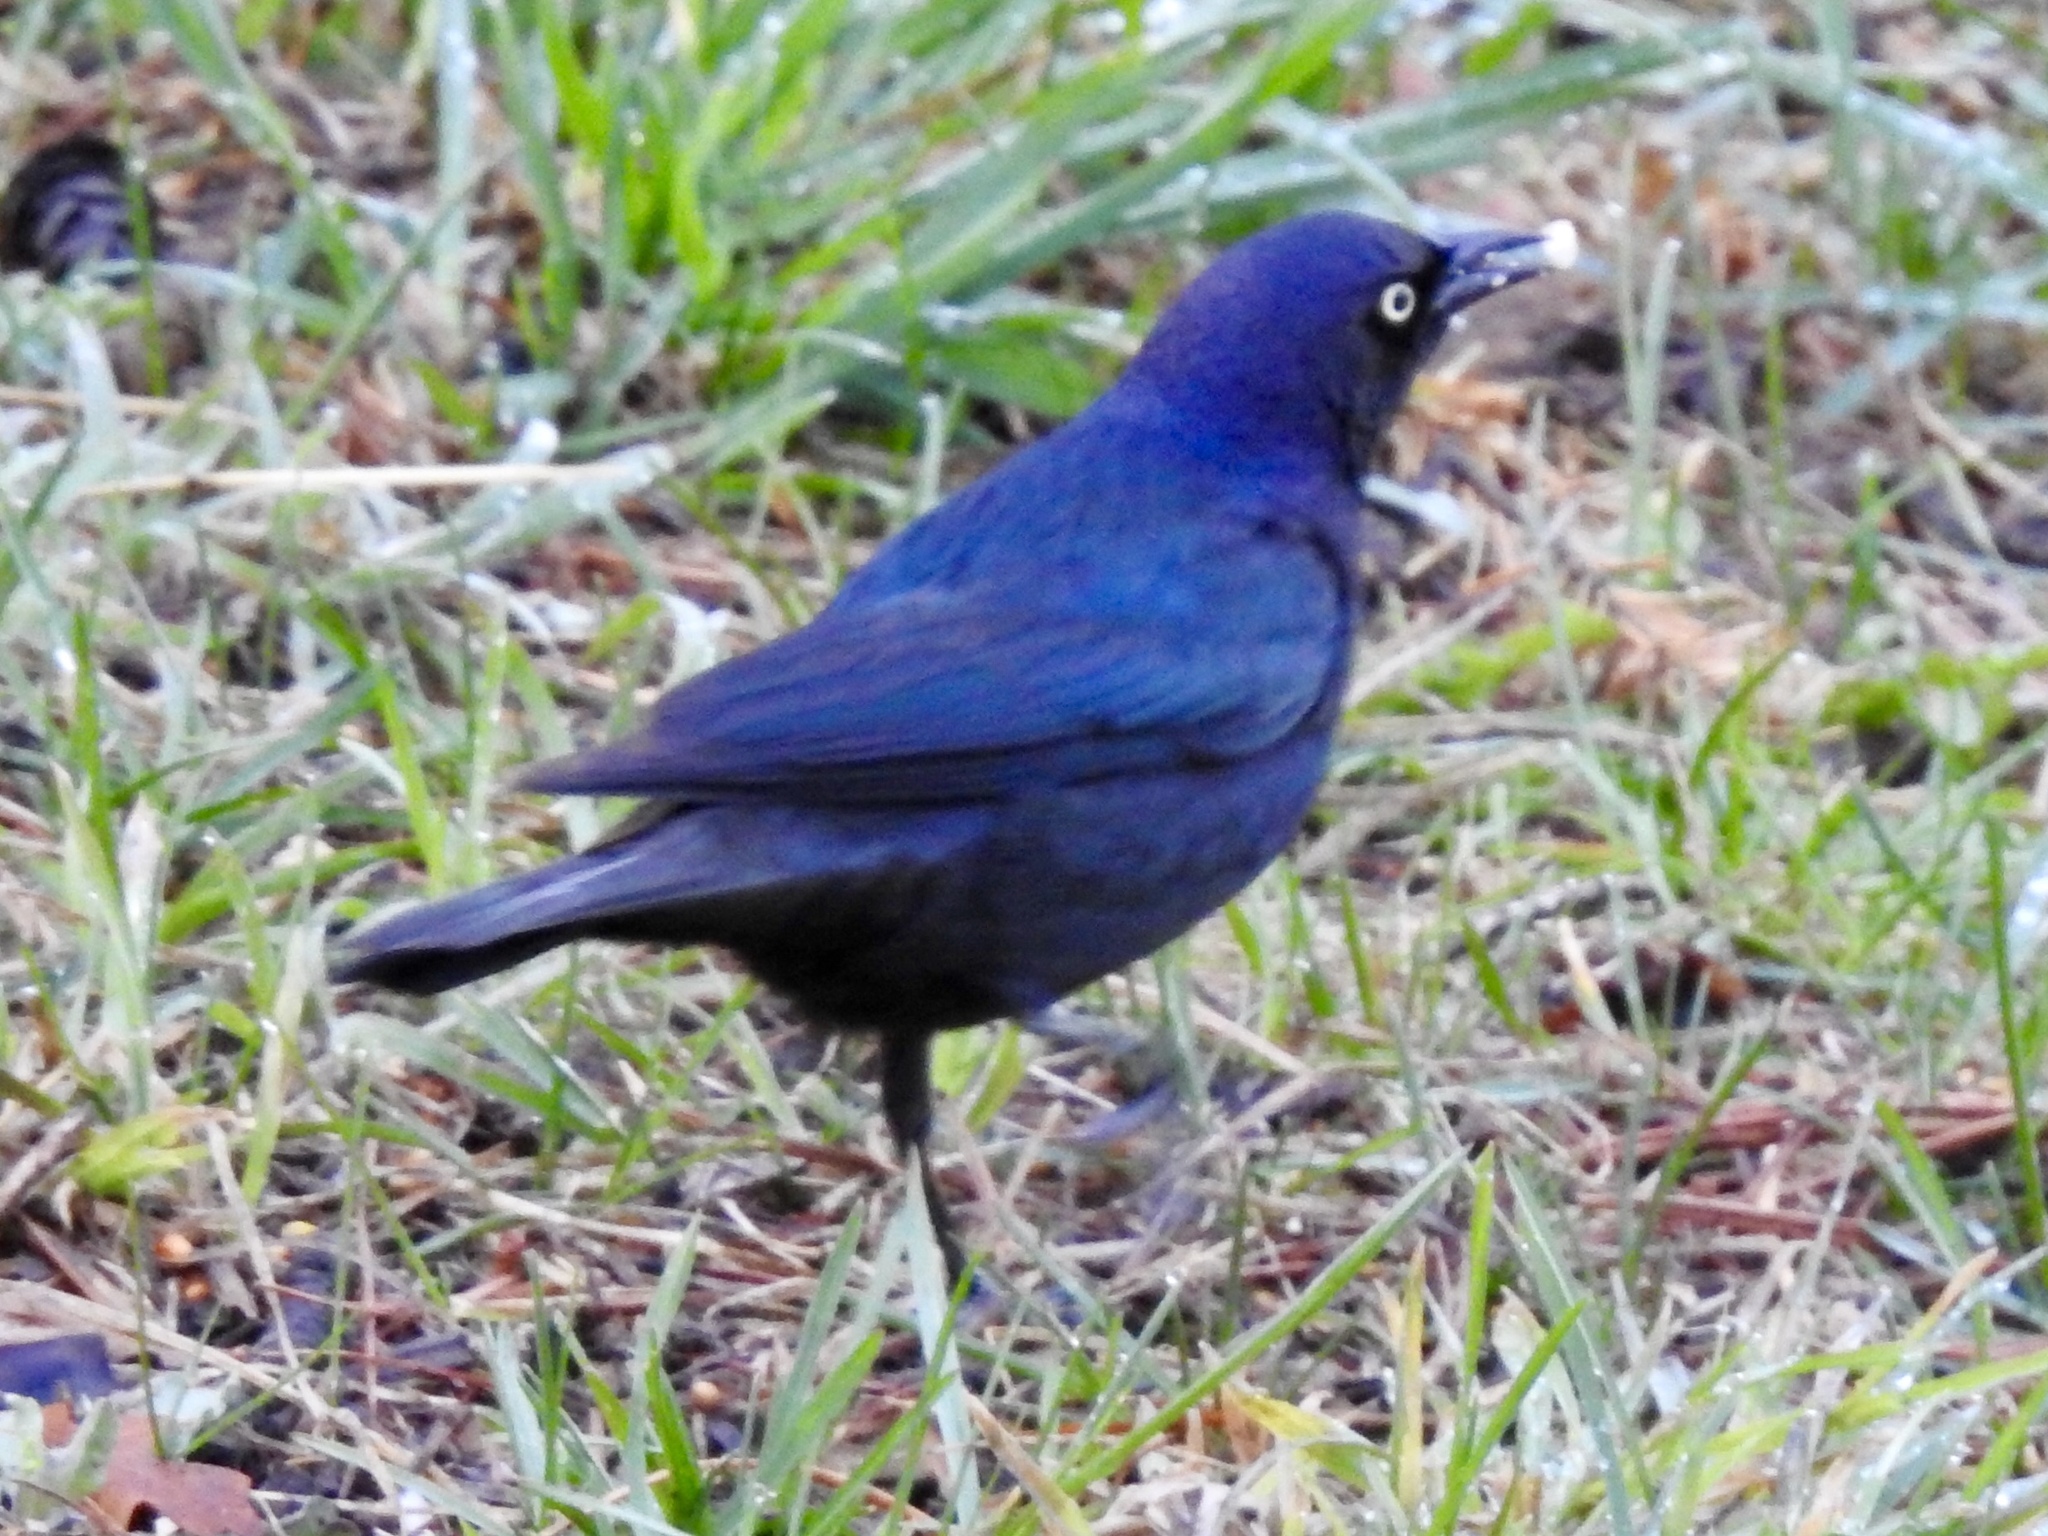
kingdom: Animalia
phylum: Chordata
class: Aves
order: Passeriformes
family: Icteridae
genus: Euphagus
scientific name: Euphagus cyanocephalus
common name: Brewer's blackbird
